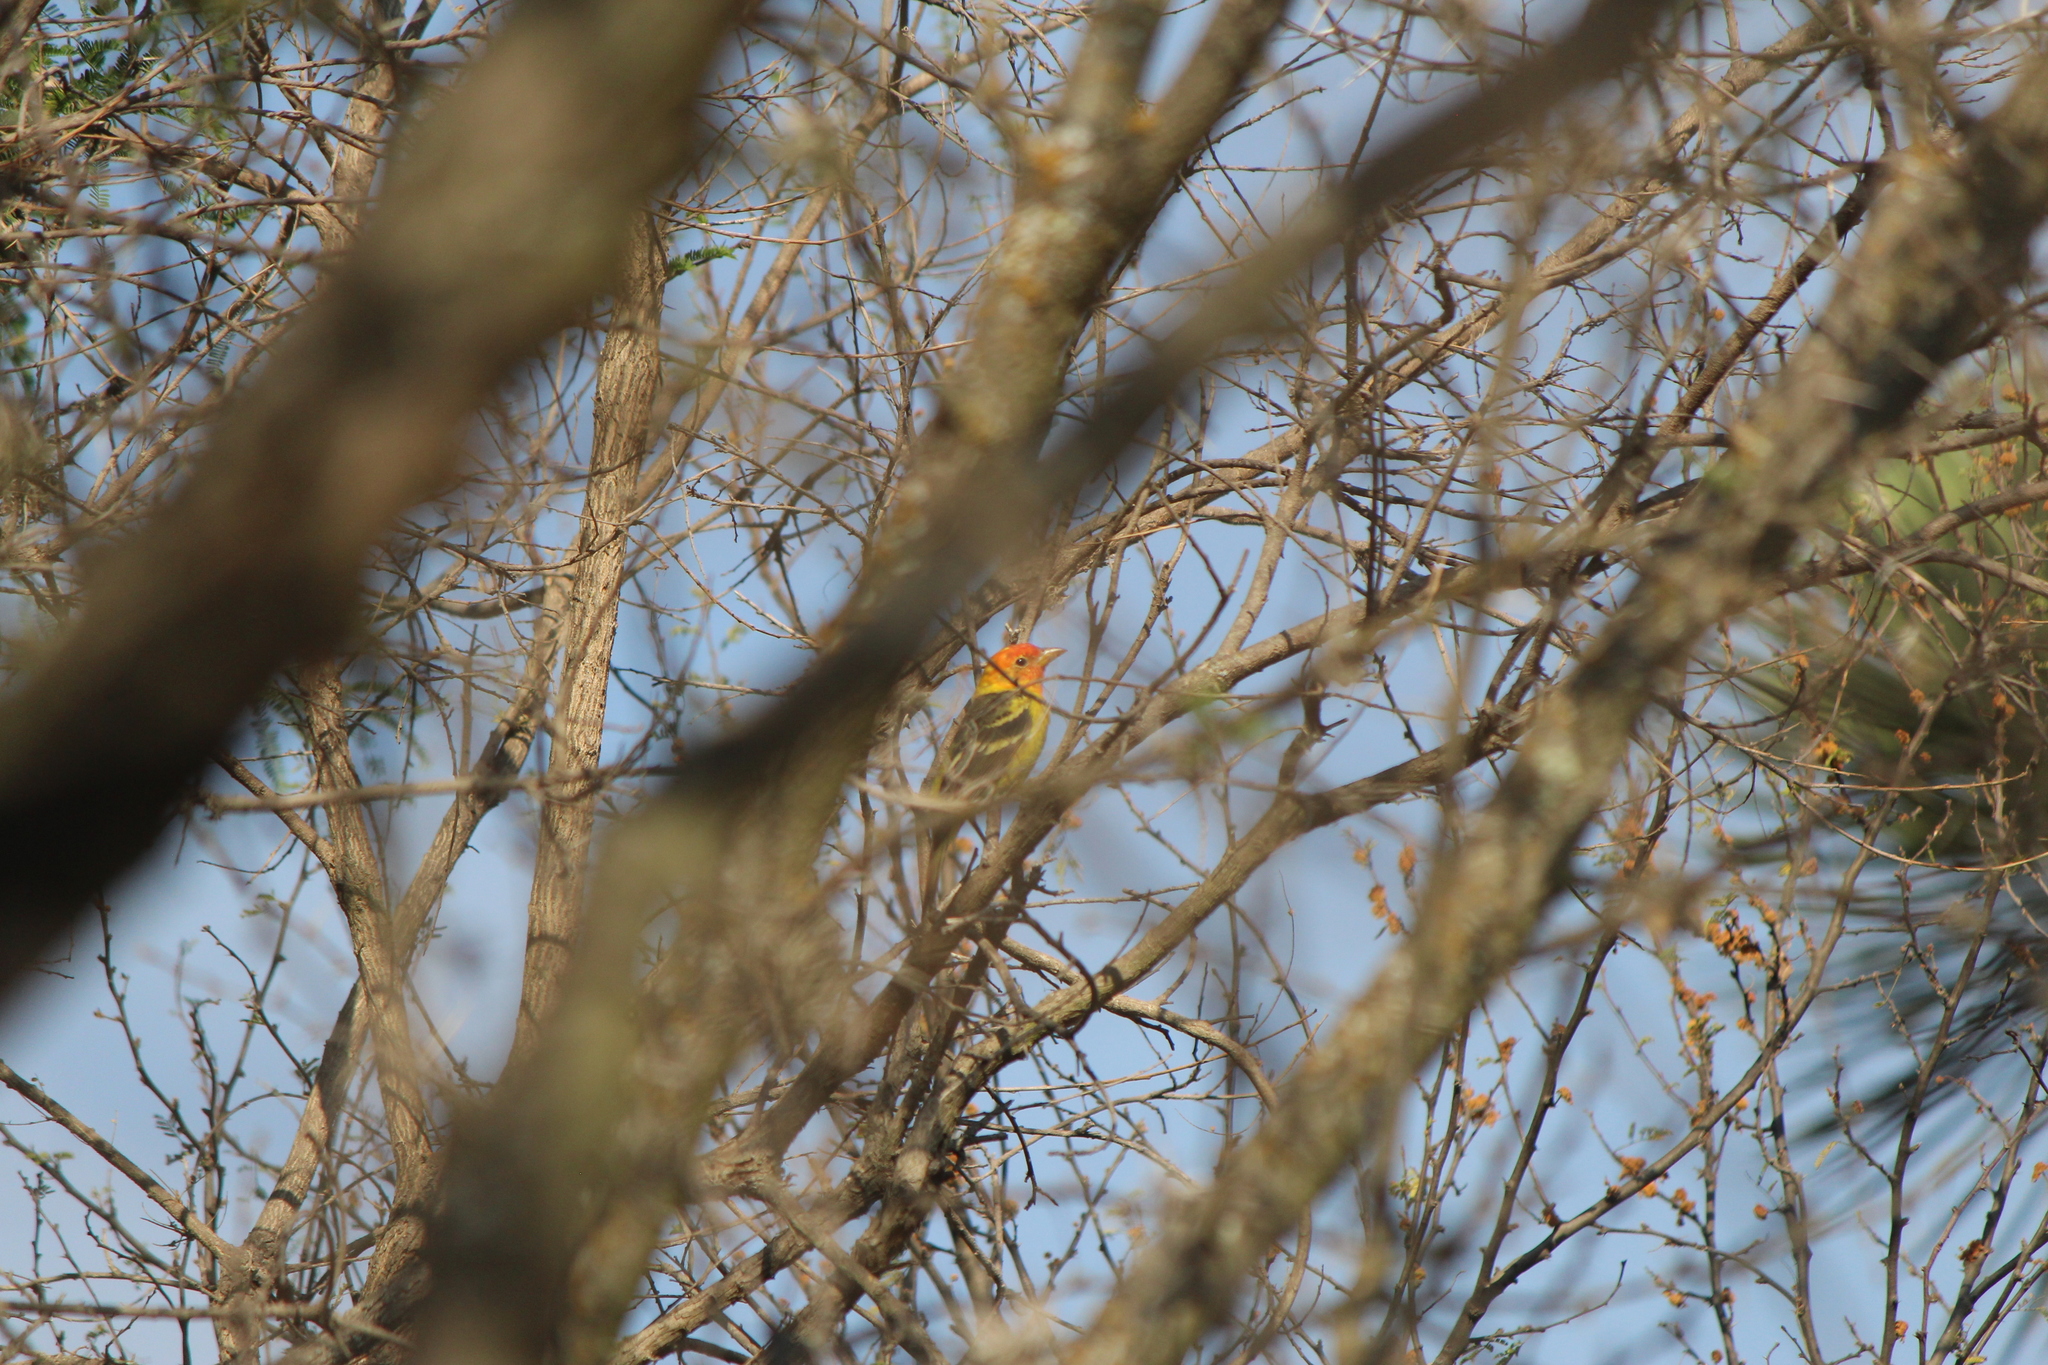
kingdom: Animalia
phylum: Chordata
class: Aves
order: Passeriformes
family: Cardinalidae
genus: Piranga
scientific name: Piranga ludoviciana
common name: Western tanager
